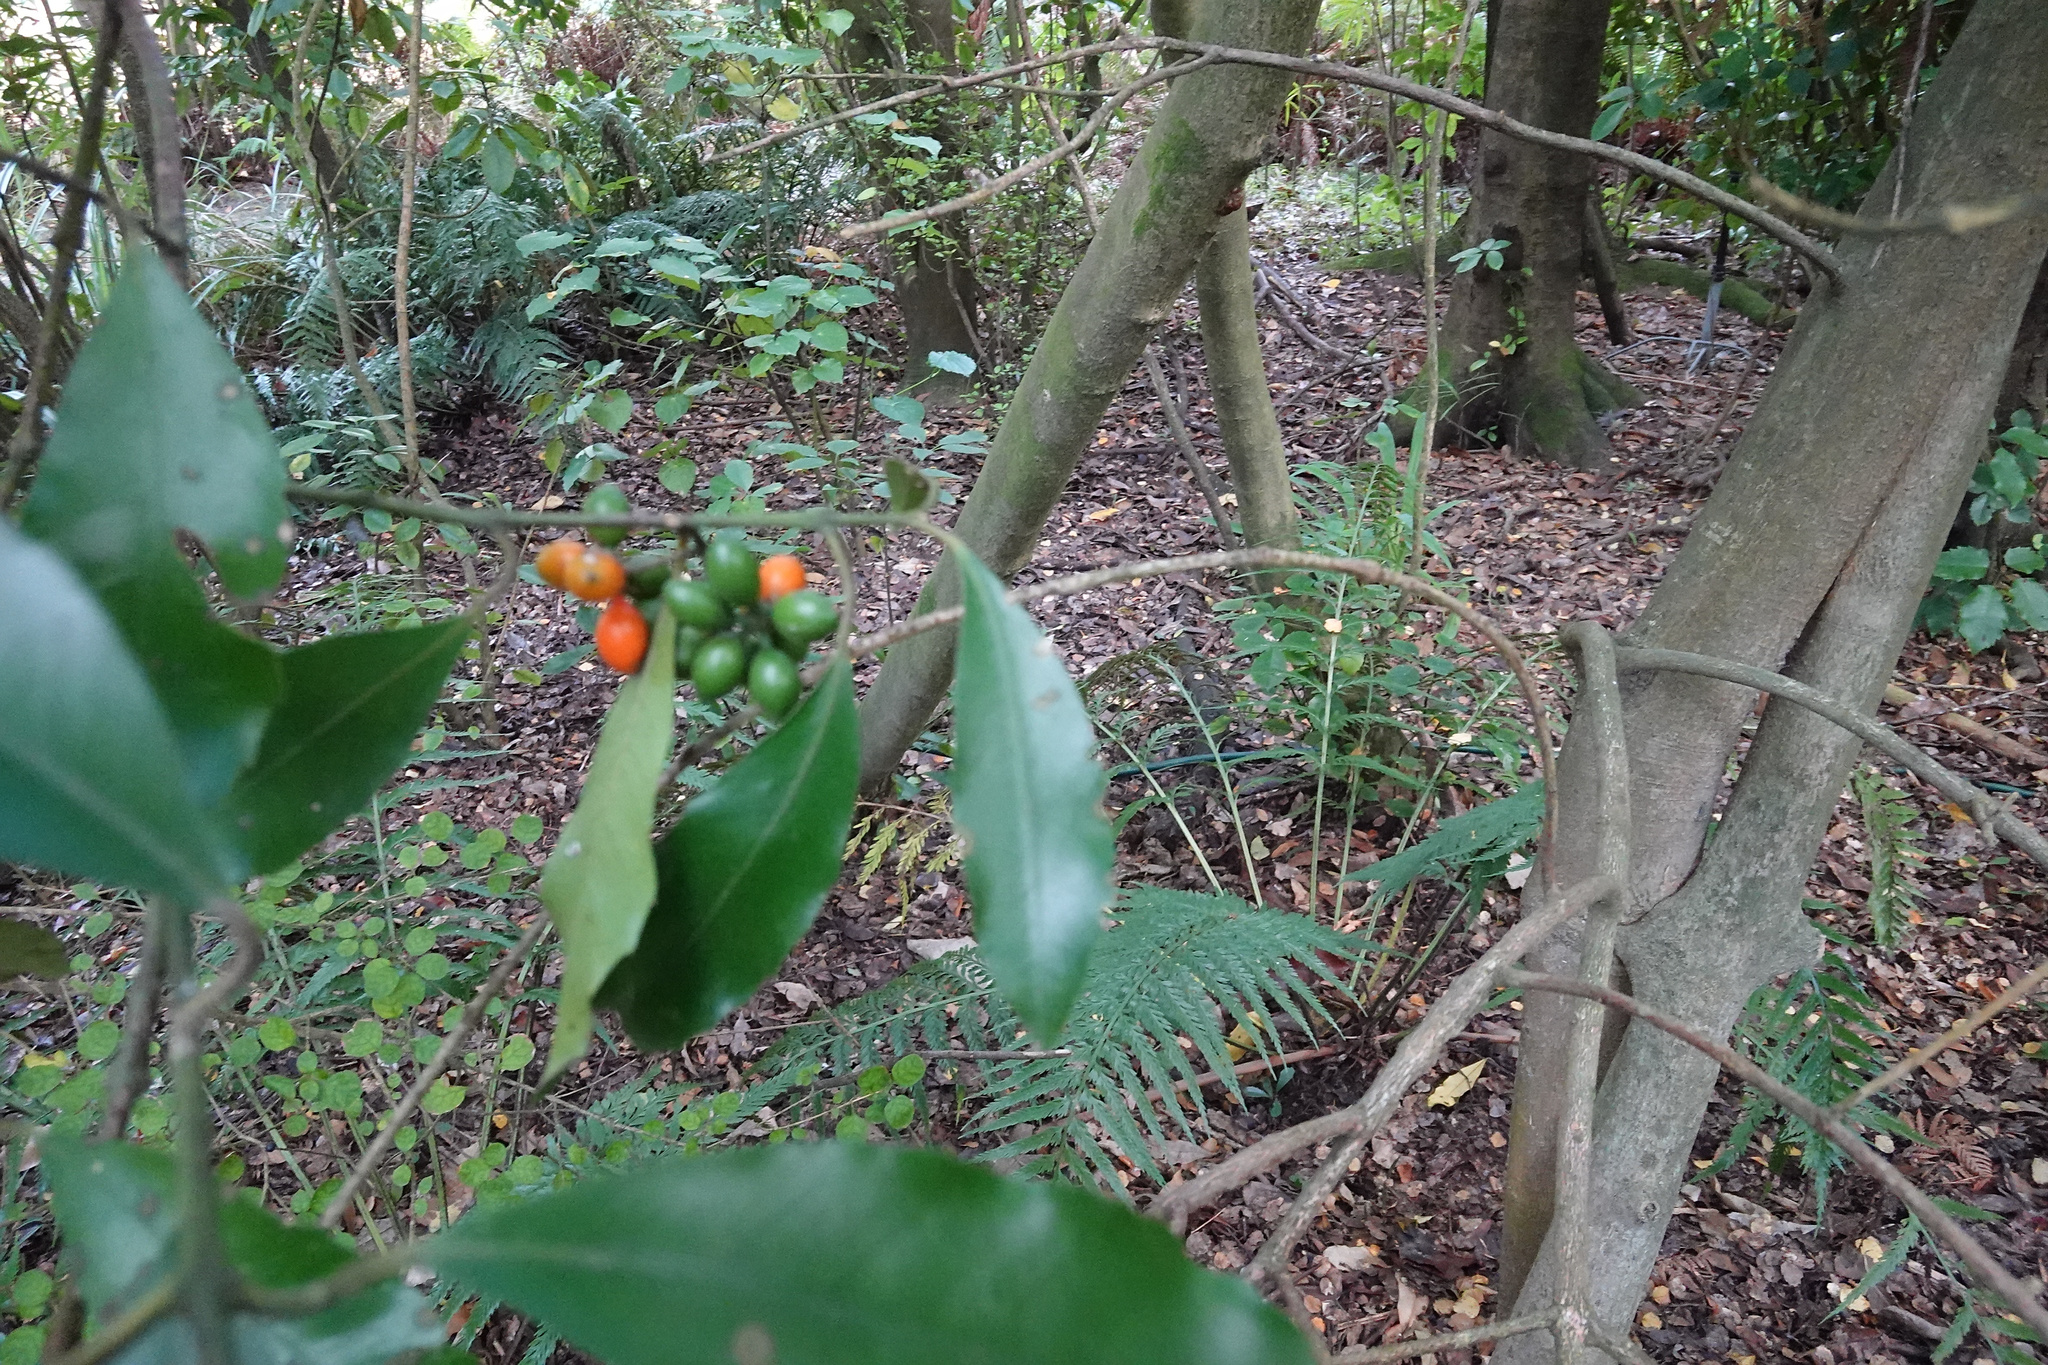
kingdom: Plantae
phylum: Tracheophyta
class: Magnoliopsida
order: Laurales
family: Monimiaceae
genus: Hedycarya
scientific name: Hedycarya arborea
